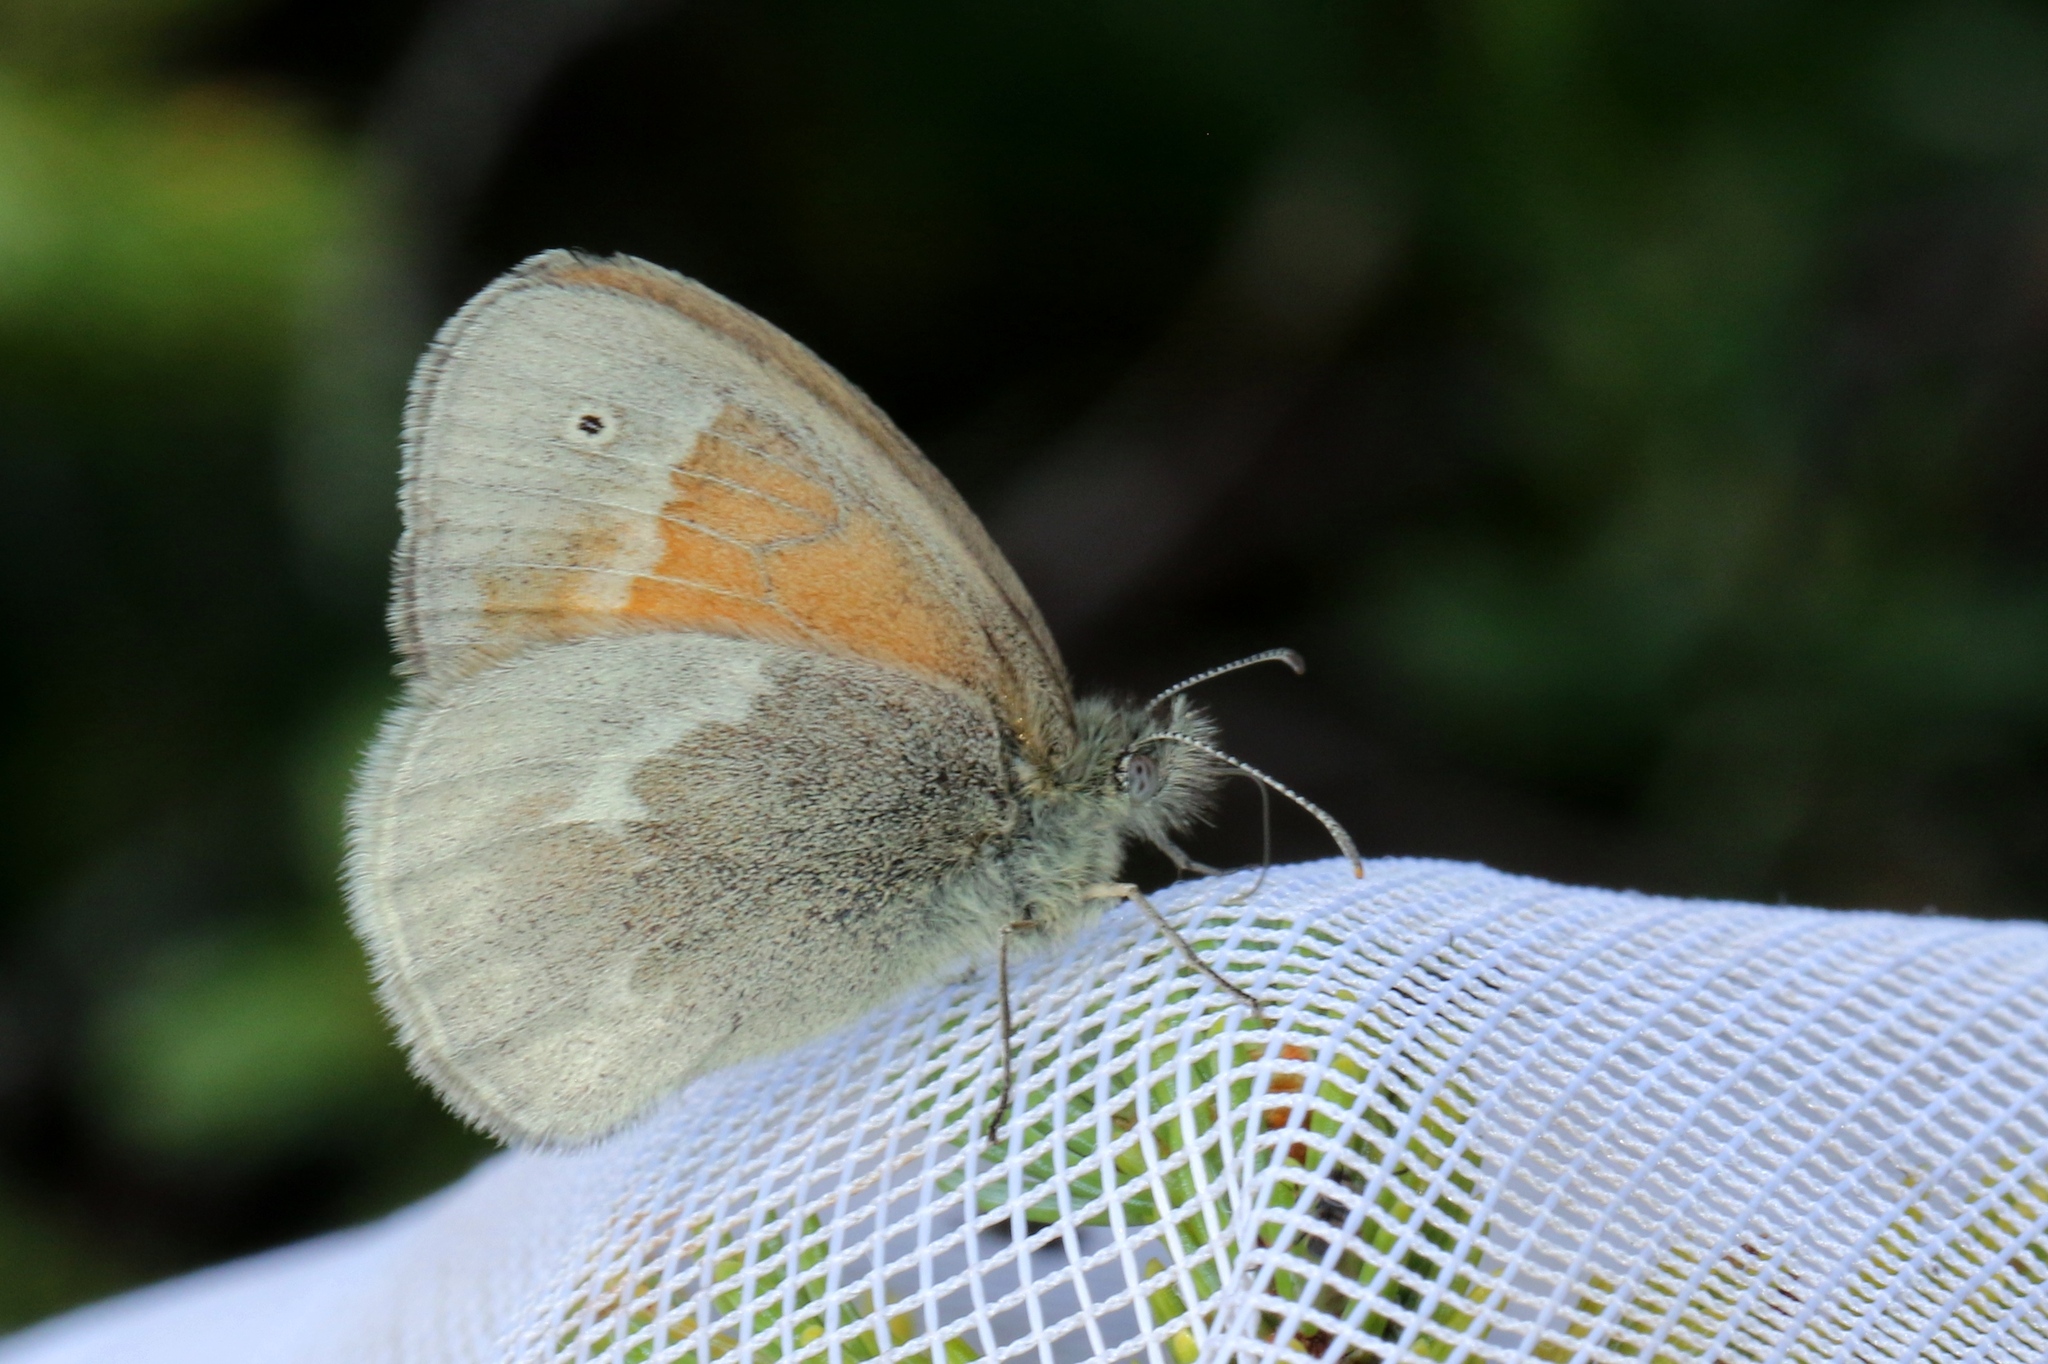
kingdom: Animalia
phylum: Arthropoda
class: Insecta
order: Lepidoptera
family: Nymphalidae
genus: Coenonympha
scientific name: Coenonympha california
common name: Common ringlet
